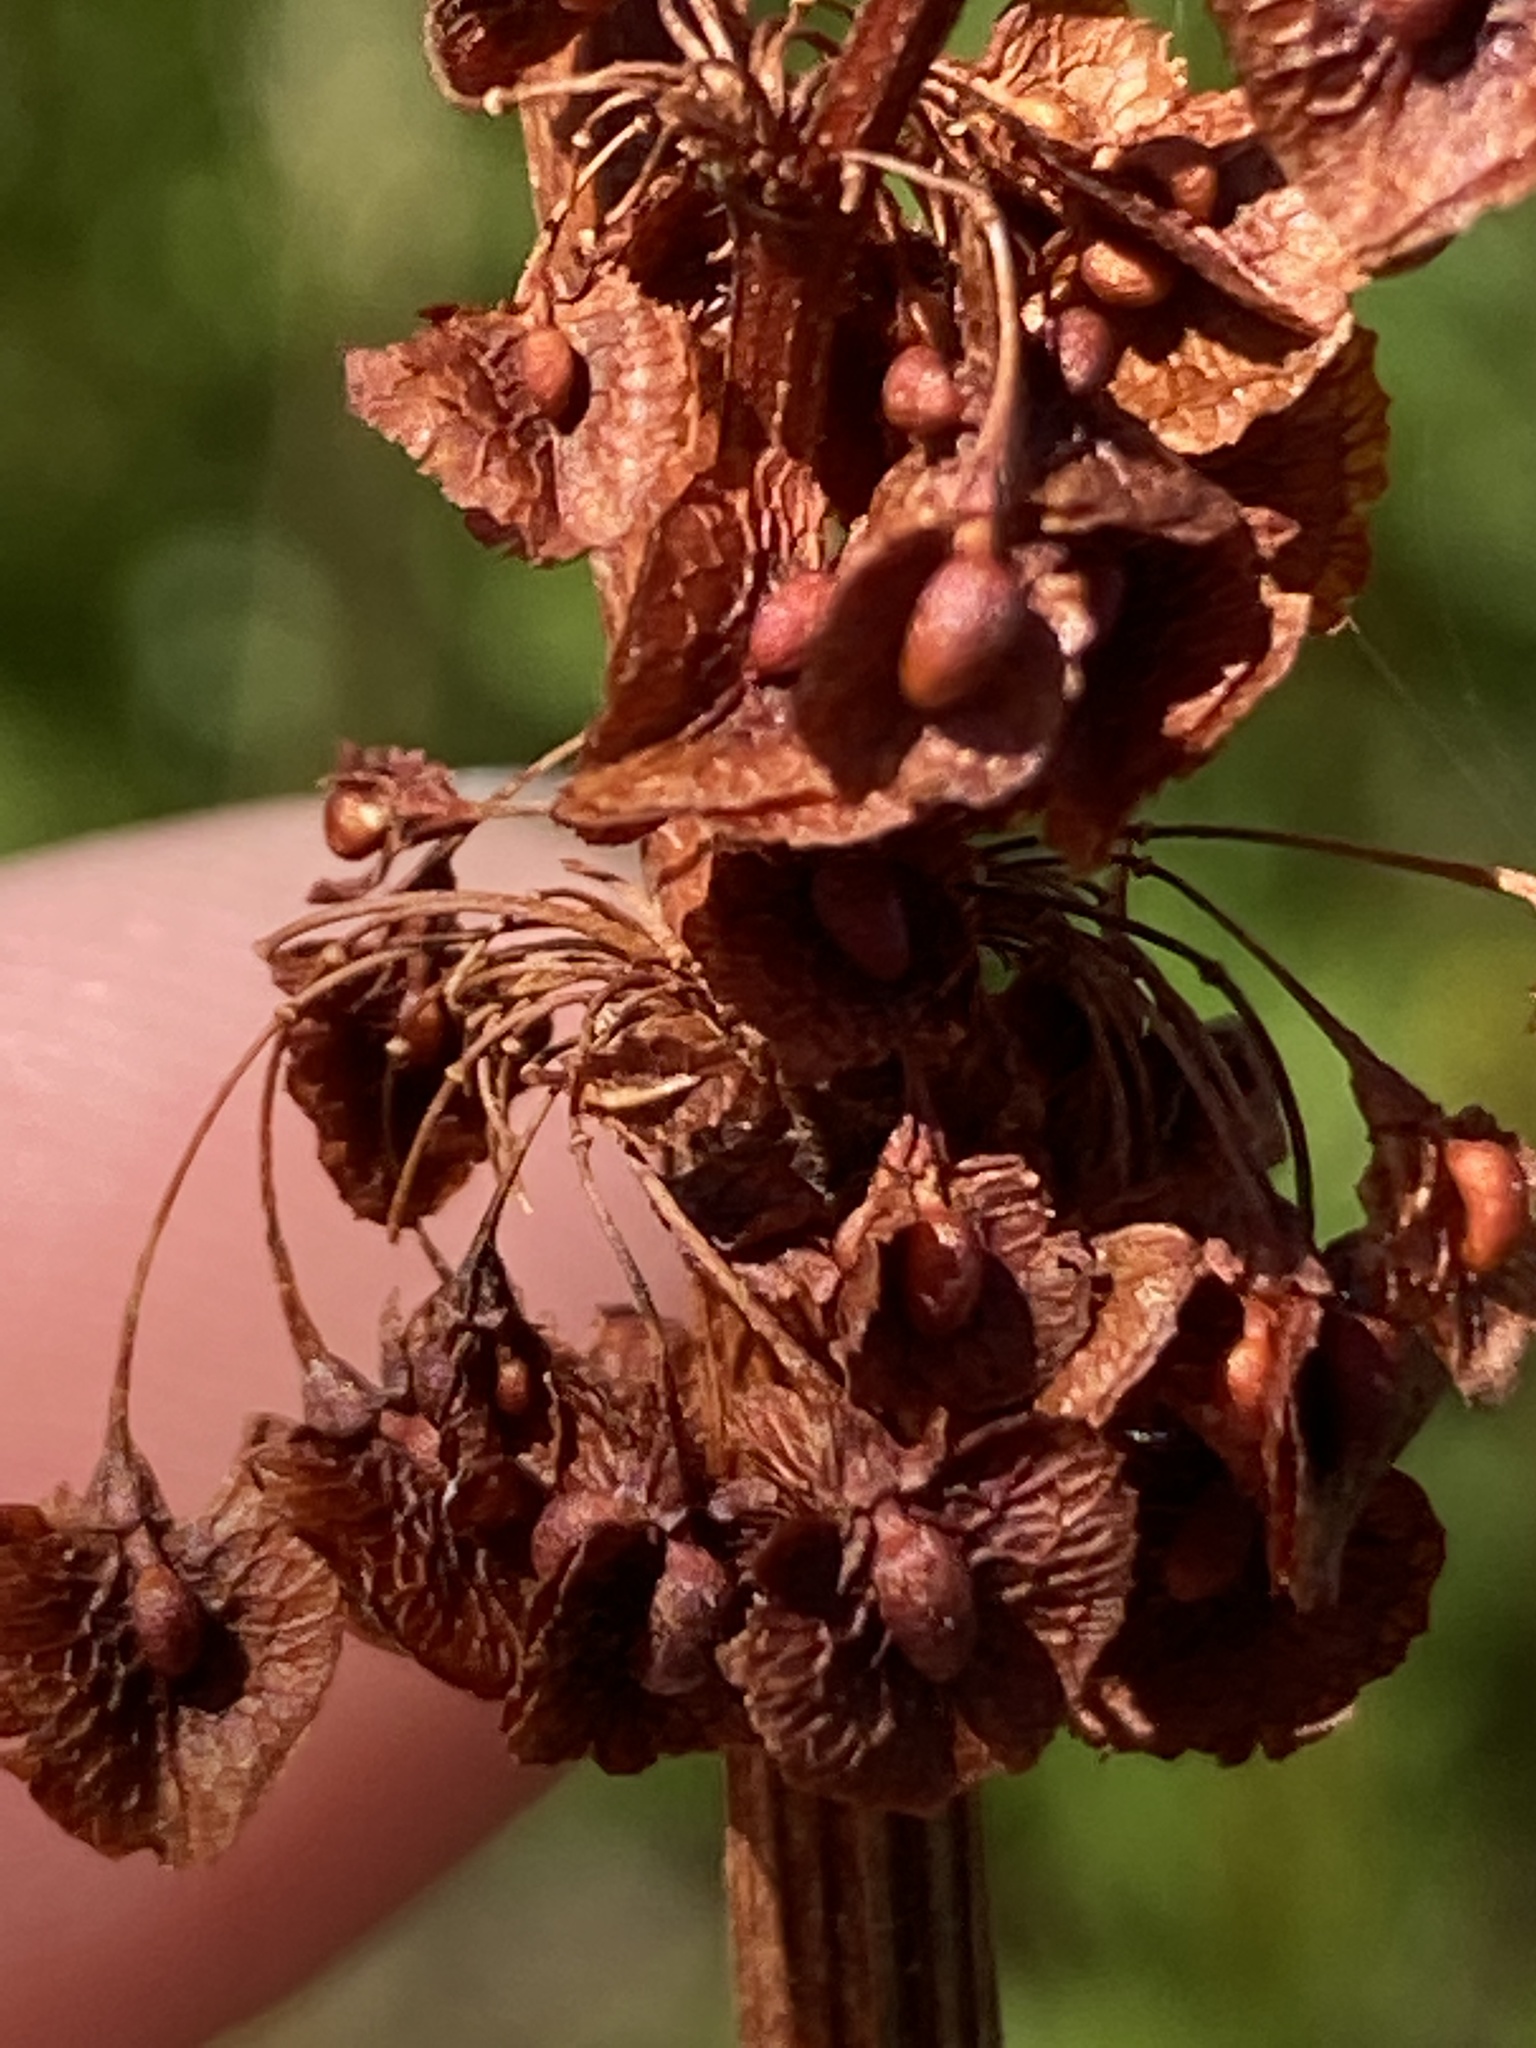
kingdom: Plantae
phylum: Tracheophyta
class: Magnoliopsida
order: Caryophyllales
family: Polygonaceae
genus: Rumex
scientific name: Rumex crispus
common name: Curled dock
